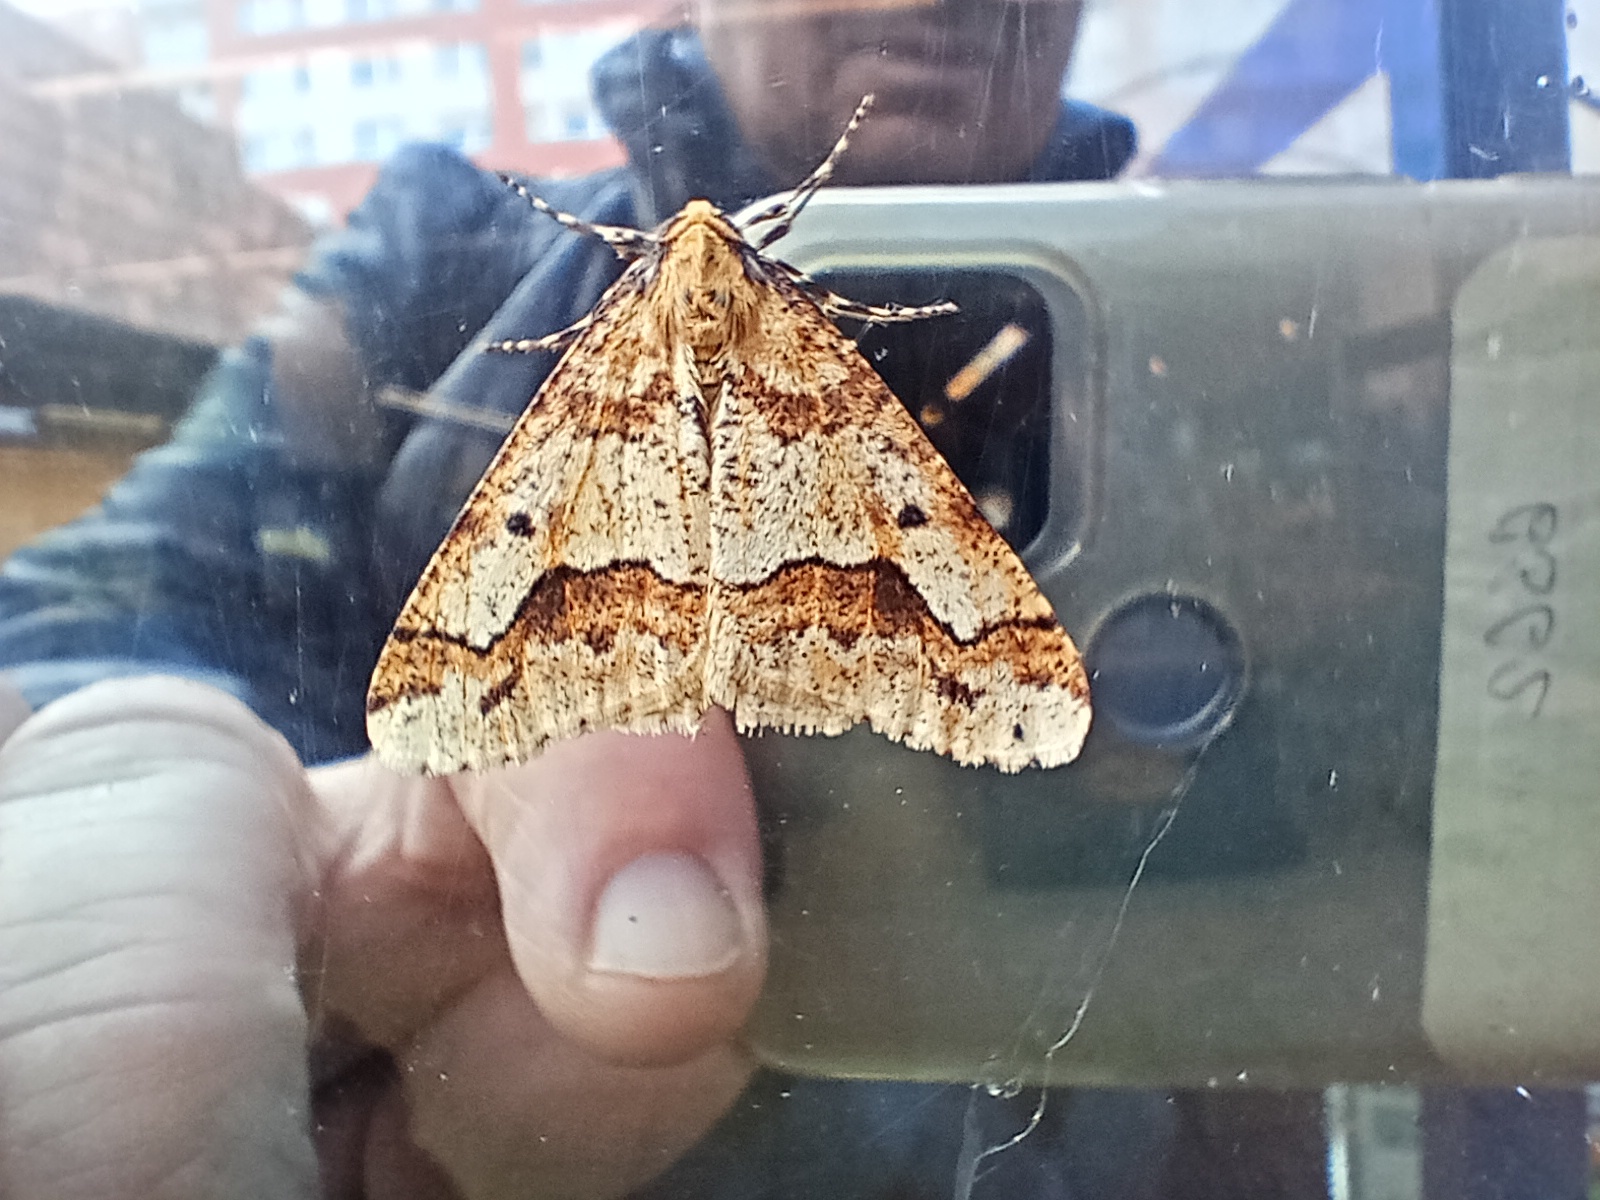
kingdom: Animalia
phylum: Arthropoda
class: Insecta
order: Lepidoptera
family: Geometridae
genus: Erannis
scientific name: Erannis defoliaria
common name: Mottled umber
